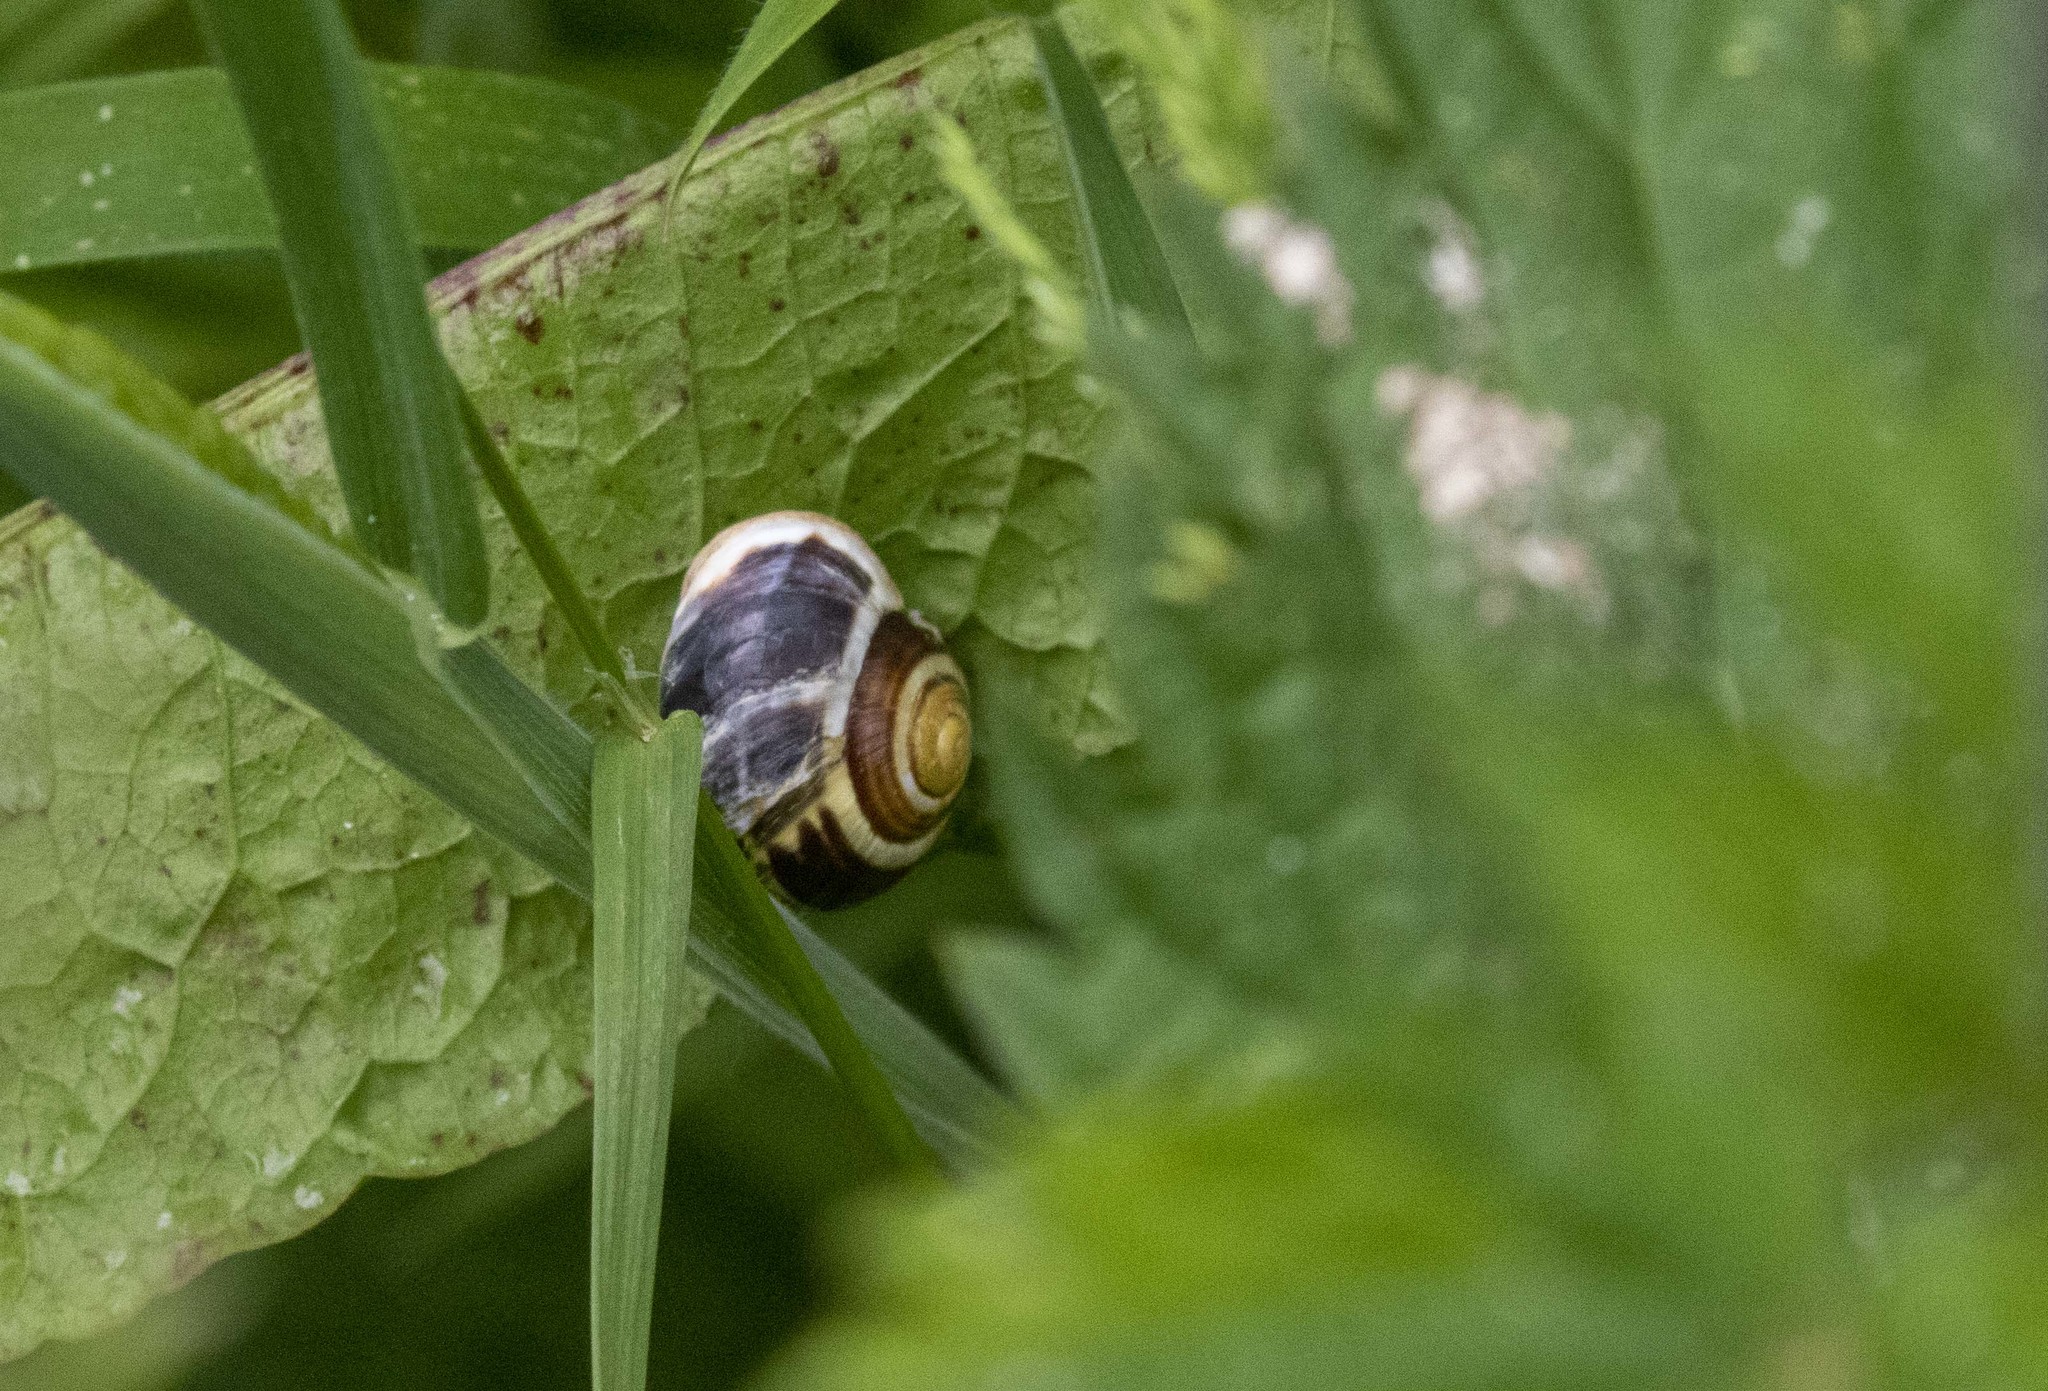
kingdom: Animalia
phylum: Mollusca
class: Gastropoda
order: Stylommatophora
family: Helicidae
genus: Cepaea
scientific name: Cepaea hortensis
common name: White-lip gardensnail
